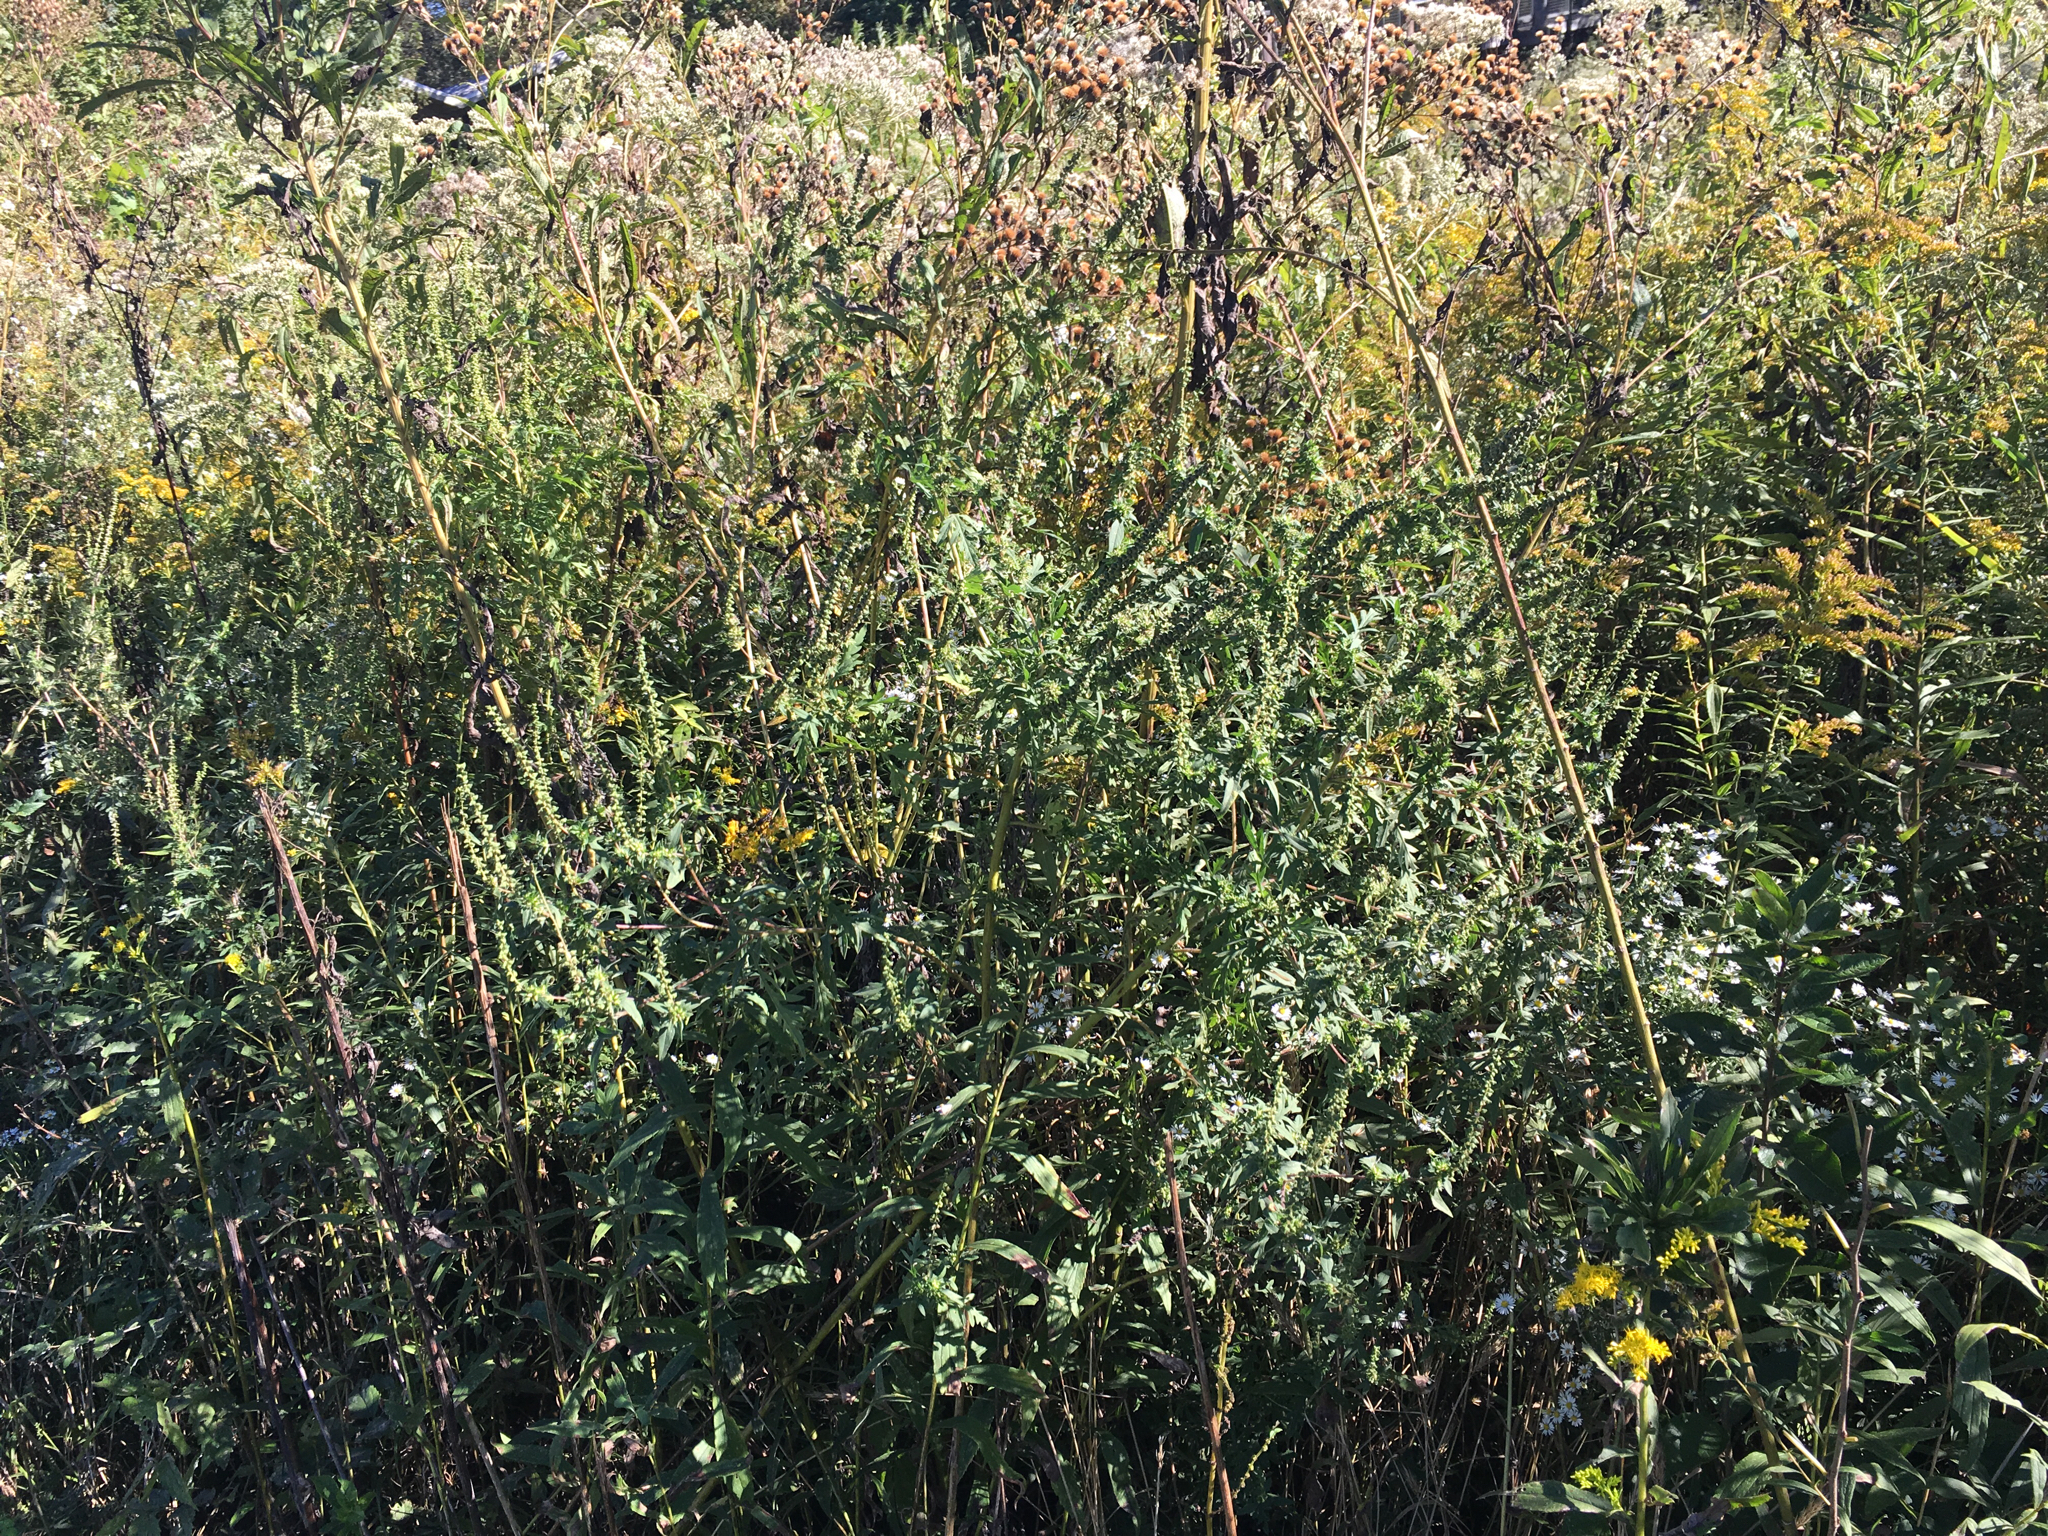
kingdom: Plantae
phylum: Tracheophyta
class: Magnoliopsida
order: Asterales
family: Asteraceae
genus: Ambrosia
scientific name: Ambrosia artemisiifolia
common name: Annual ragweed
